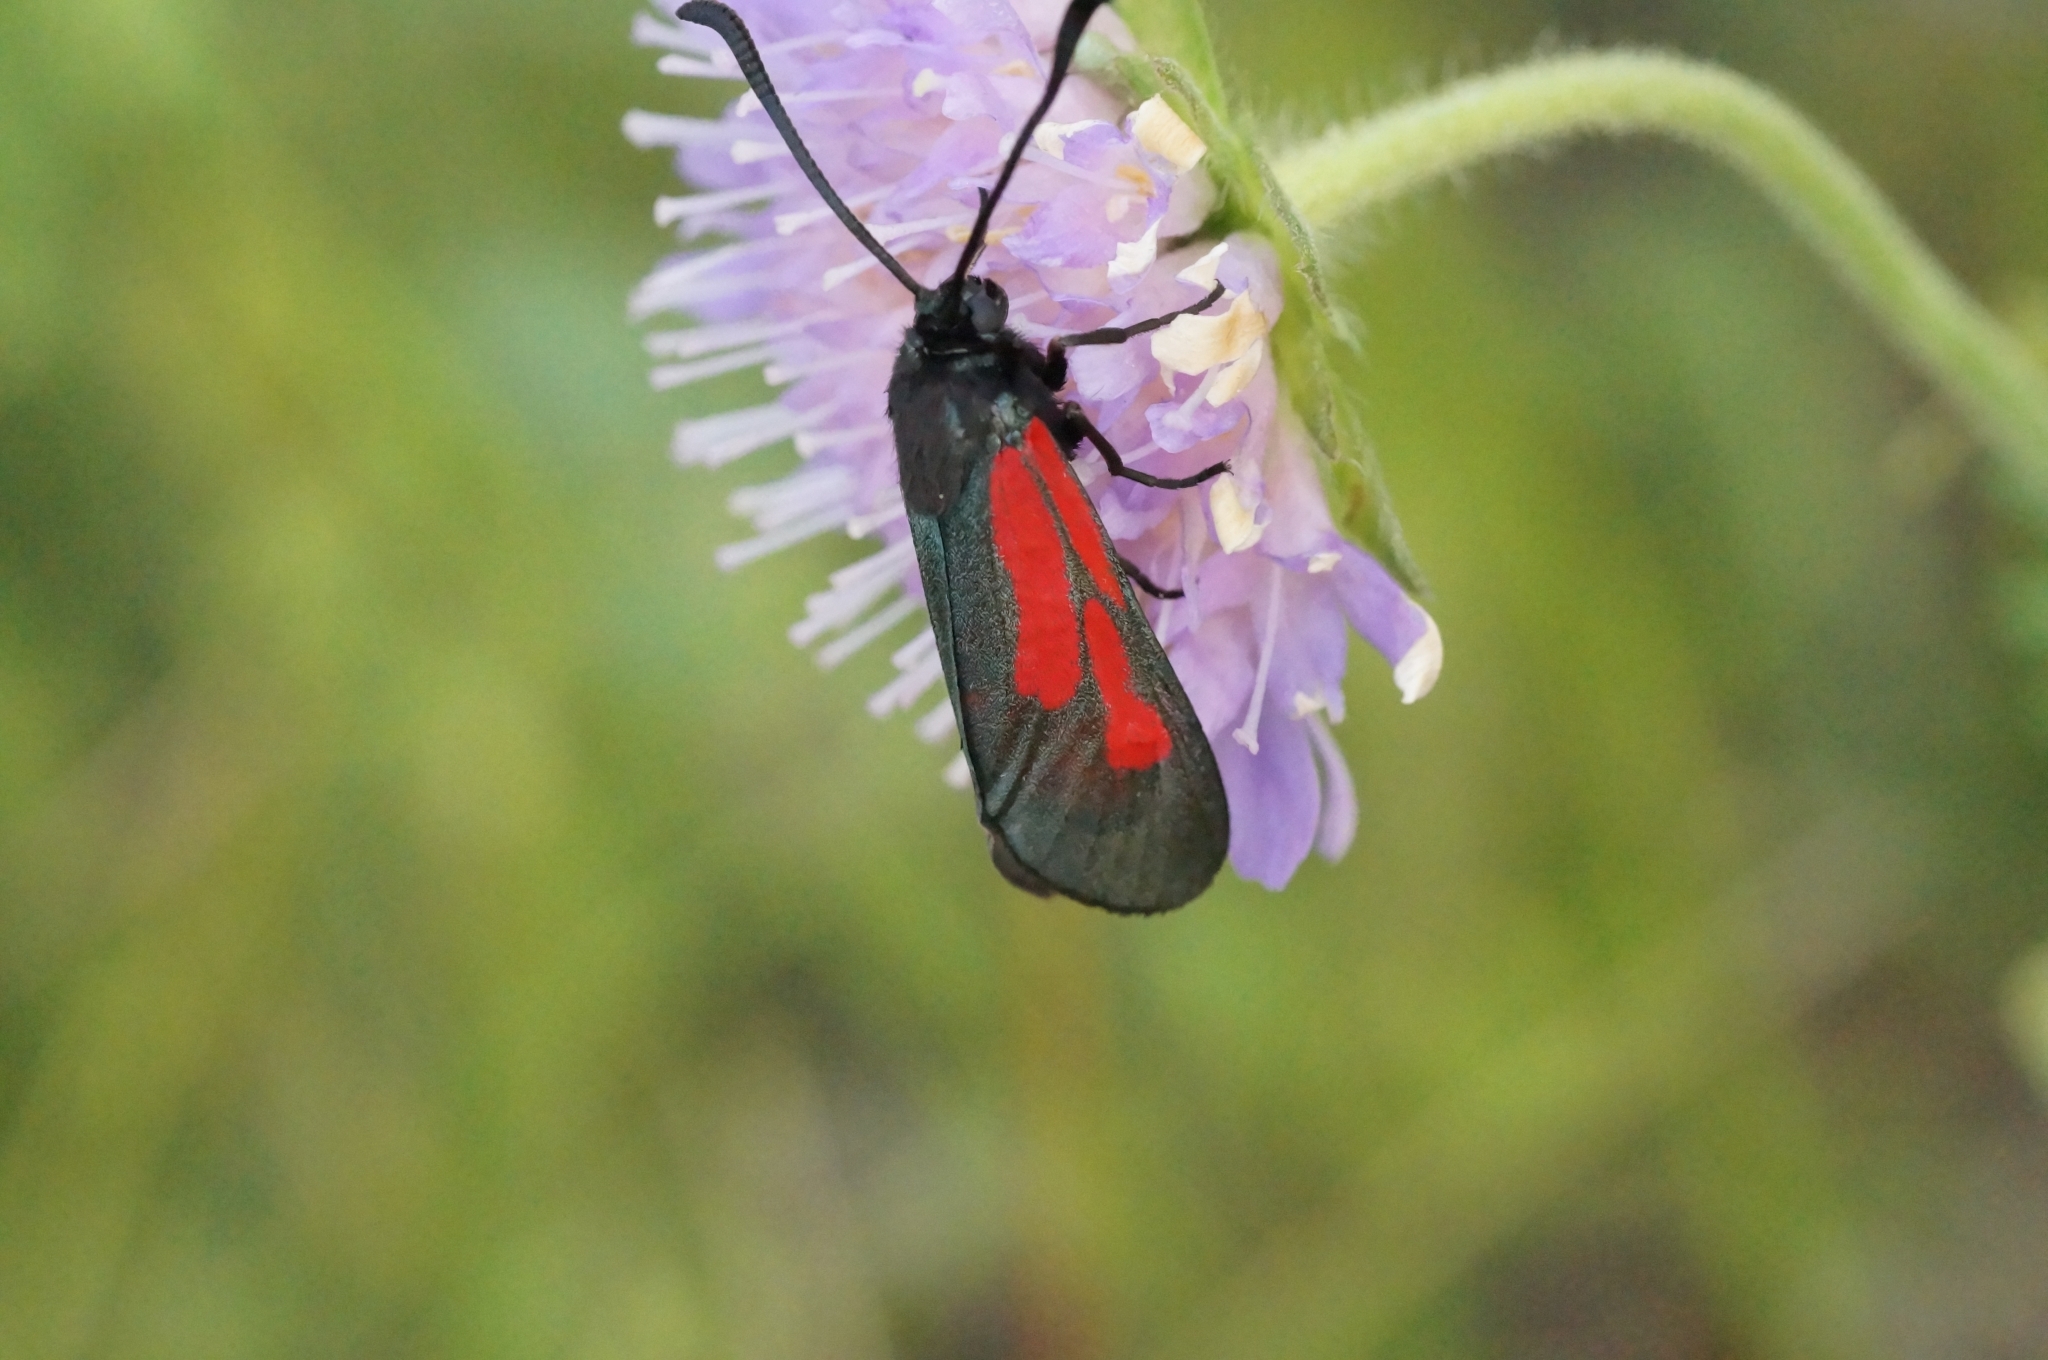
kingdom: Animalia
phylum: Arthropoda
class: Insecta
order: Lepidoptera
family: Zygaenidae
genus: Zygaena
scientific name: Zygaena minos
